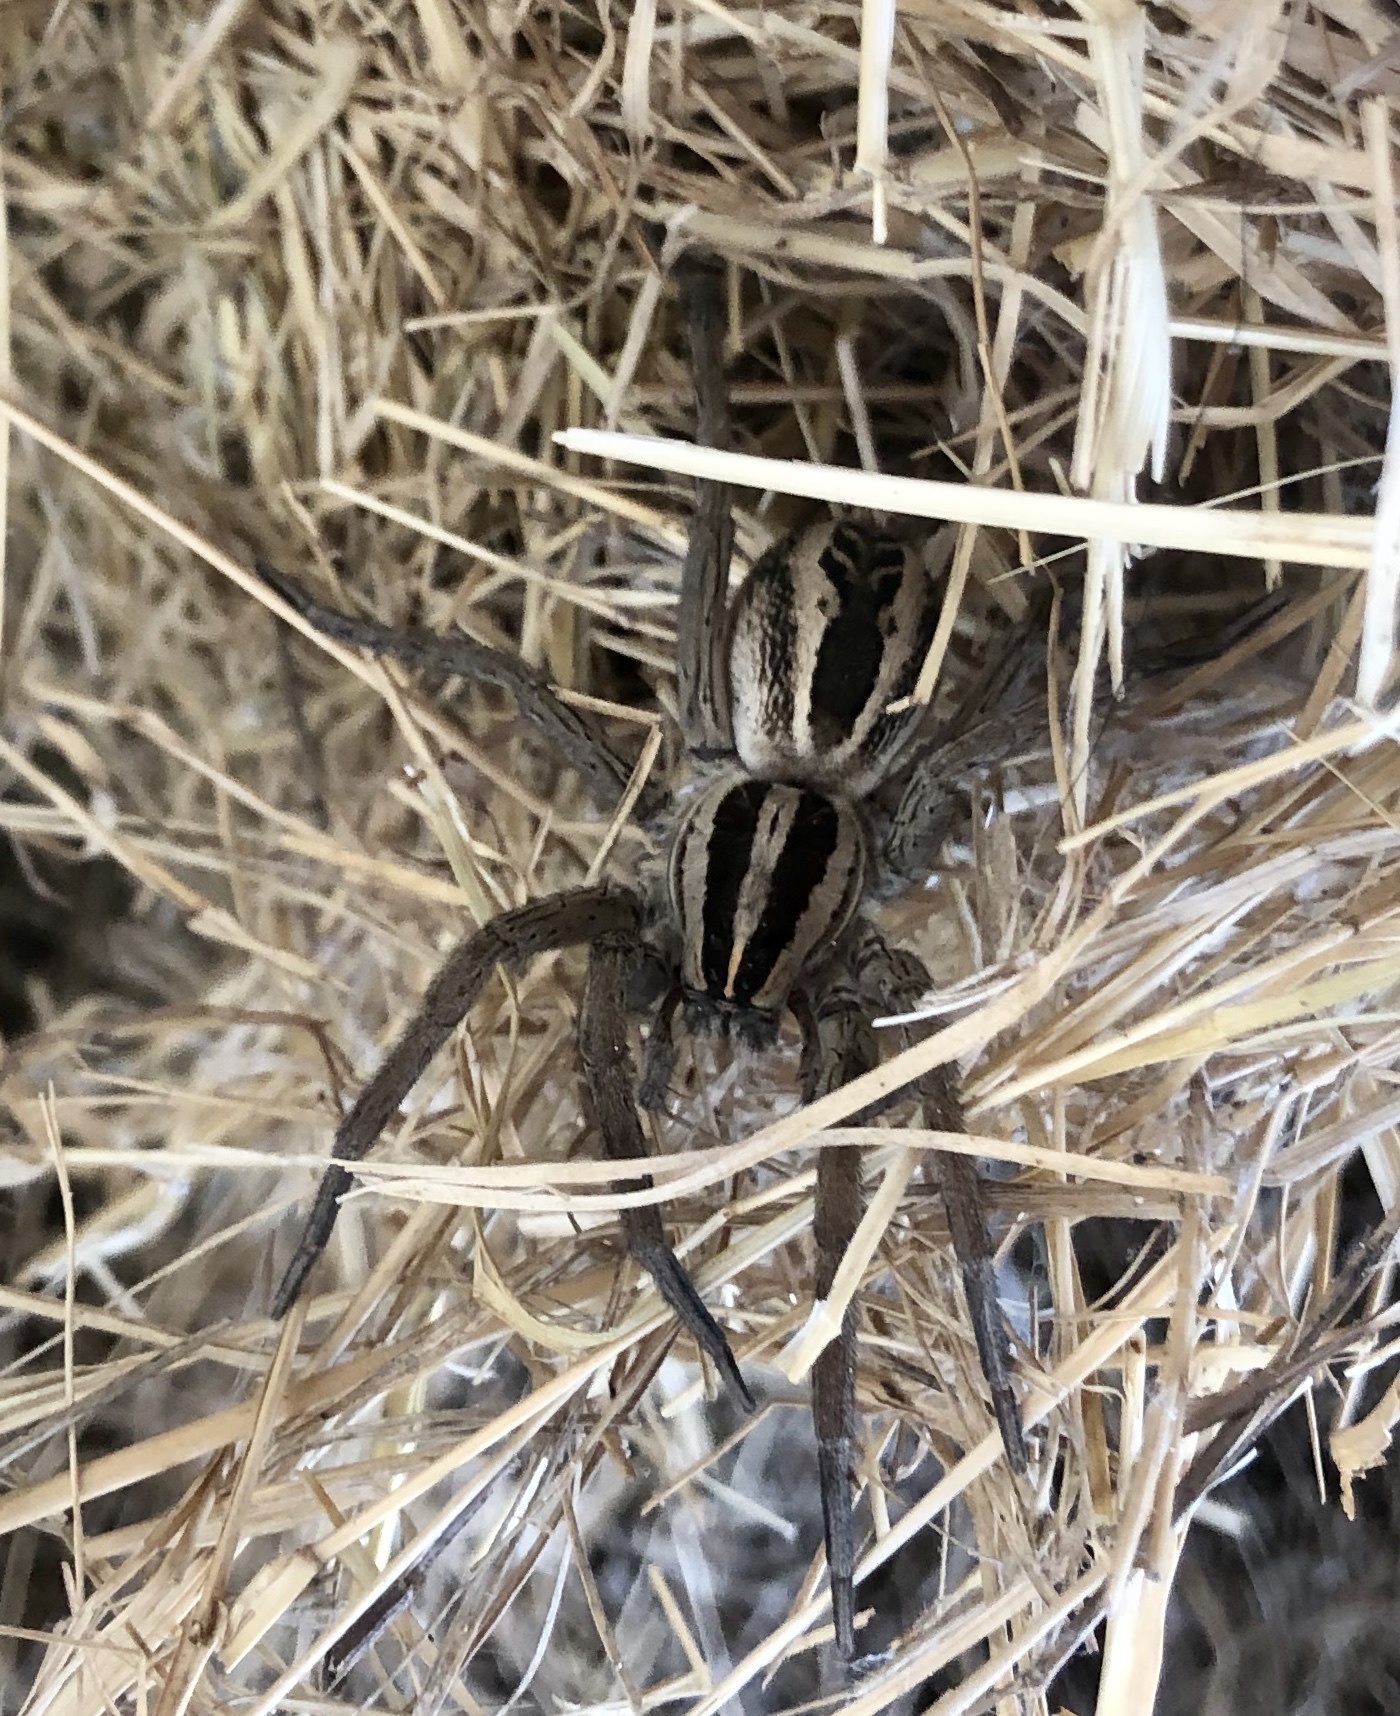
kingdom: Animalia
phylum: Arthropoda
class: Arachnida
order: Araneae
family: Lycosidae
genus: Rabidosa
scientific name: Rabidosa rabida
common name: Rabid wolf spider
